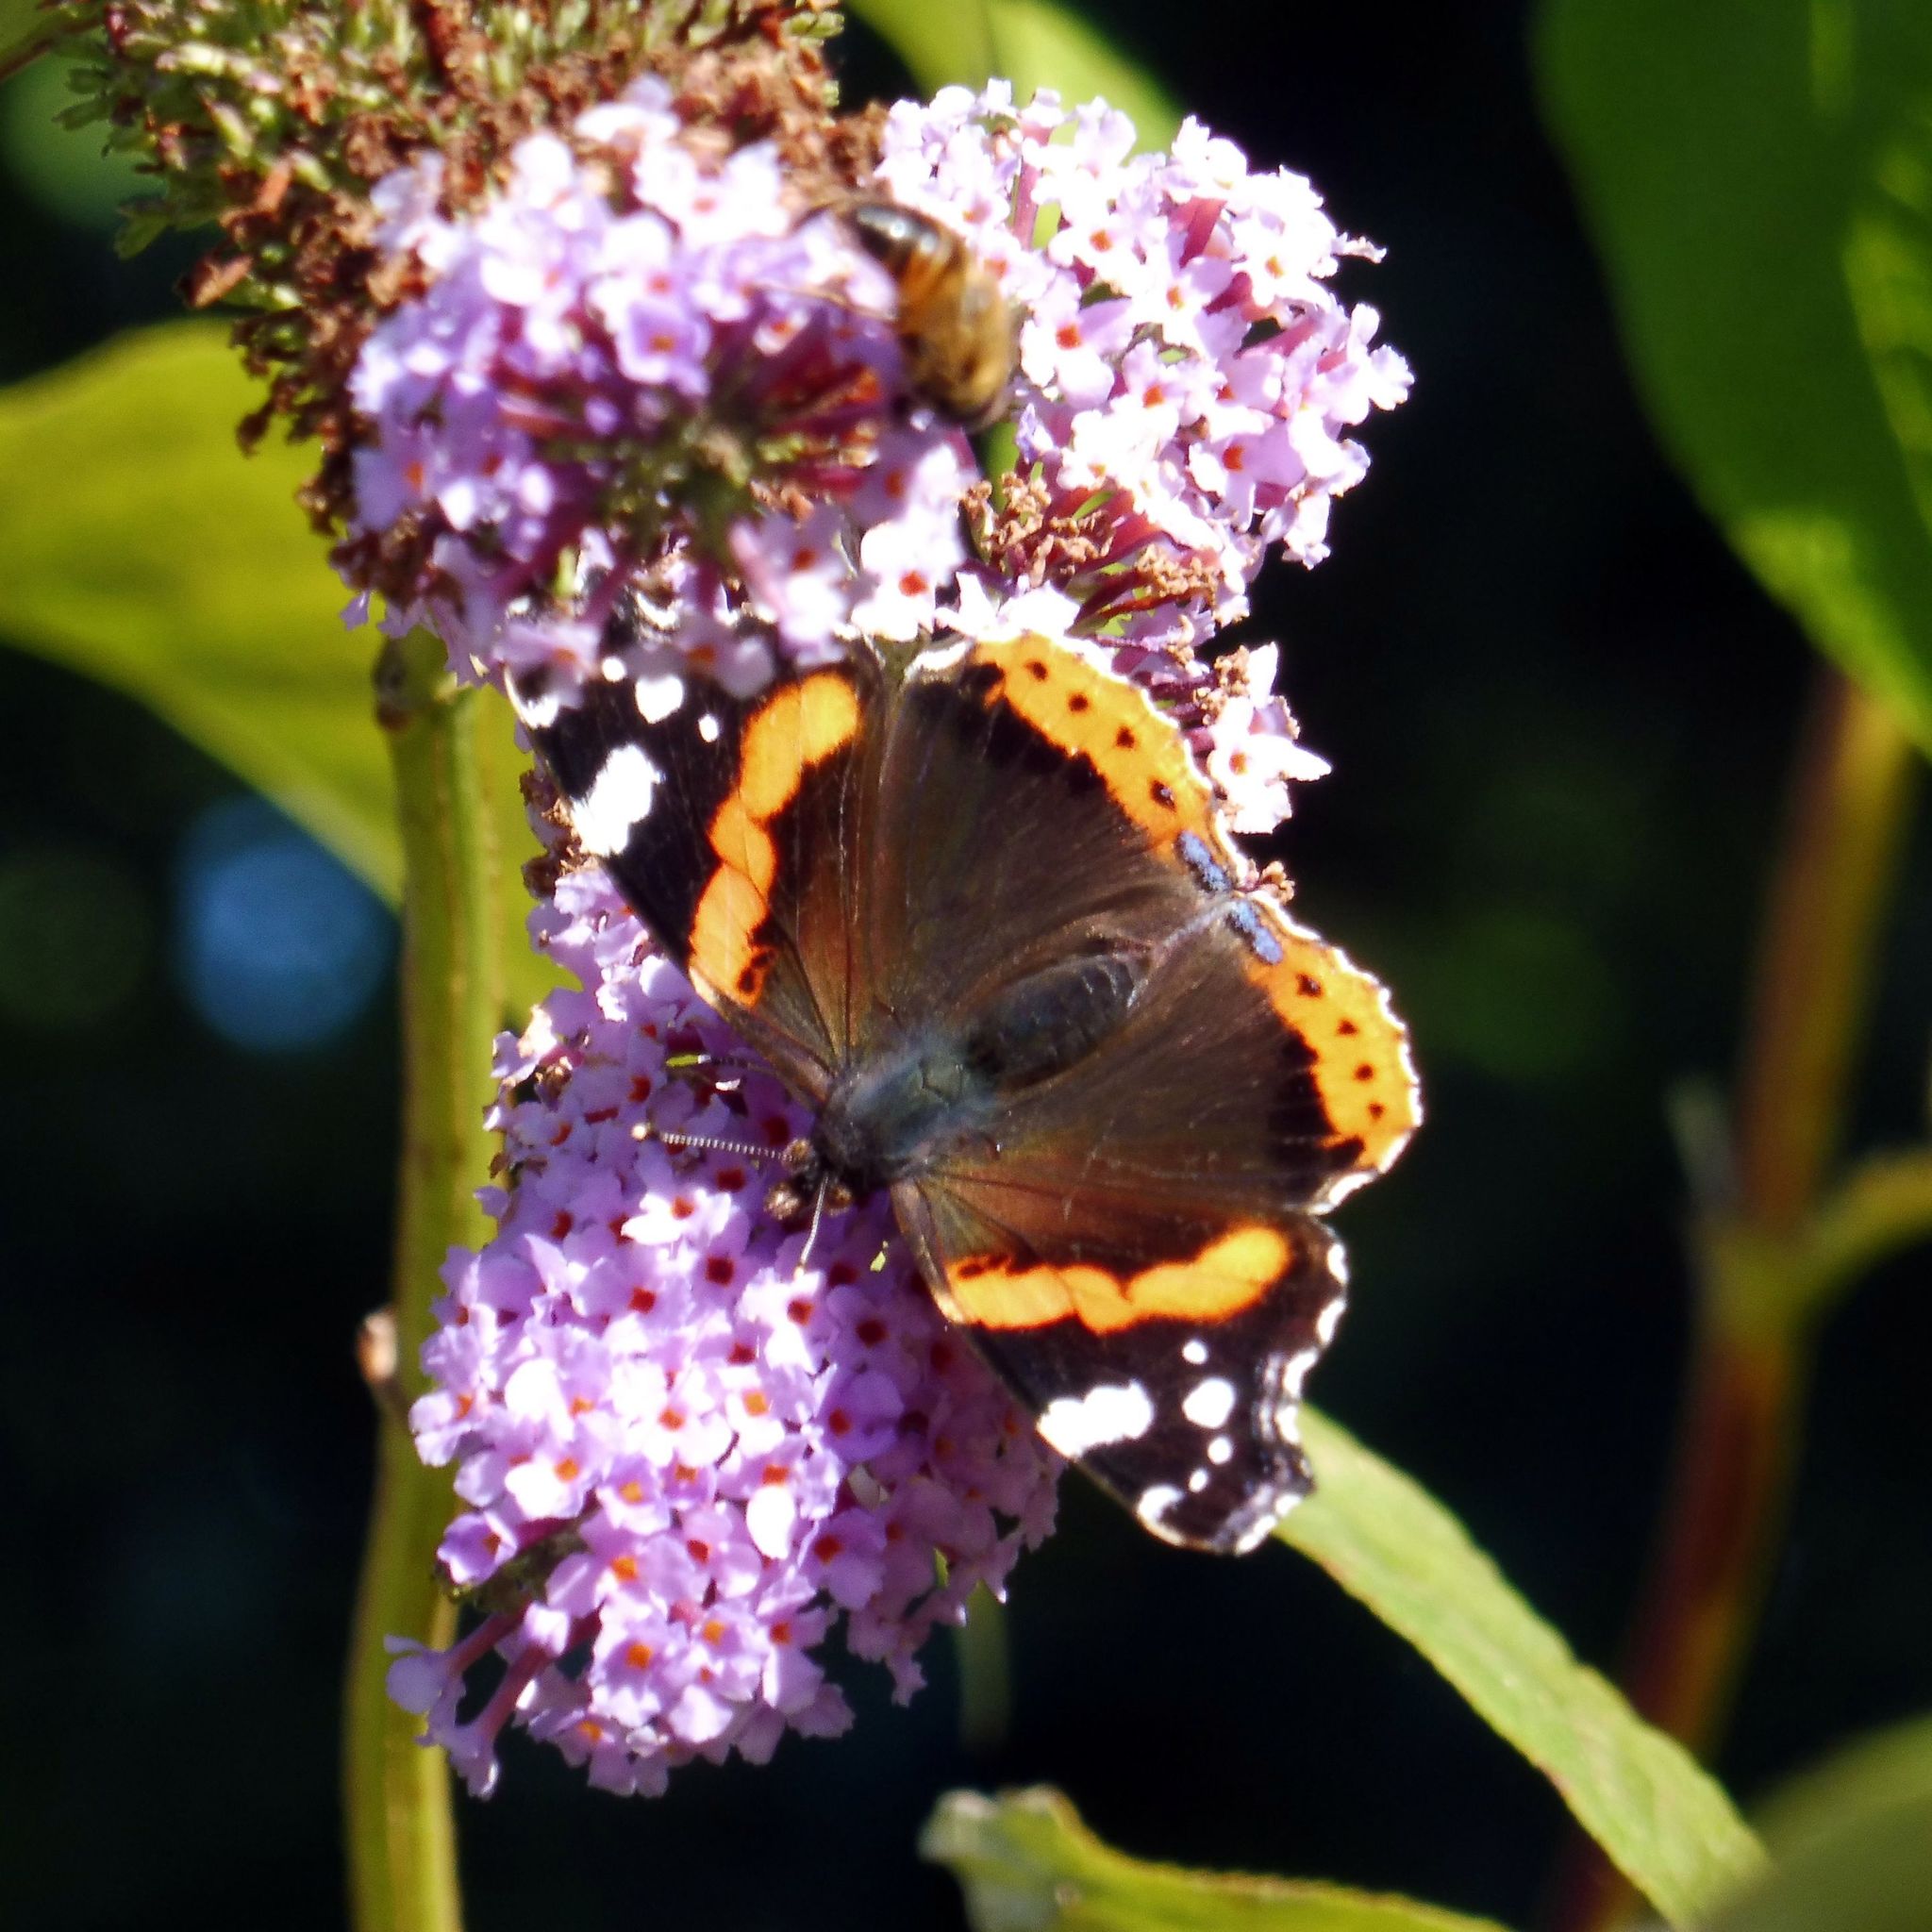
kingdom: Animalia
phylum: Arthropoda
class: Insecta
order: Lepidoptera
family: Nymphalidae
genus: Vanessa
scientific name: Vanessa atalanta
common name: Red admiral
